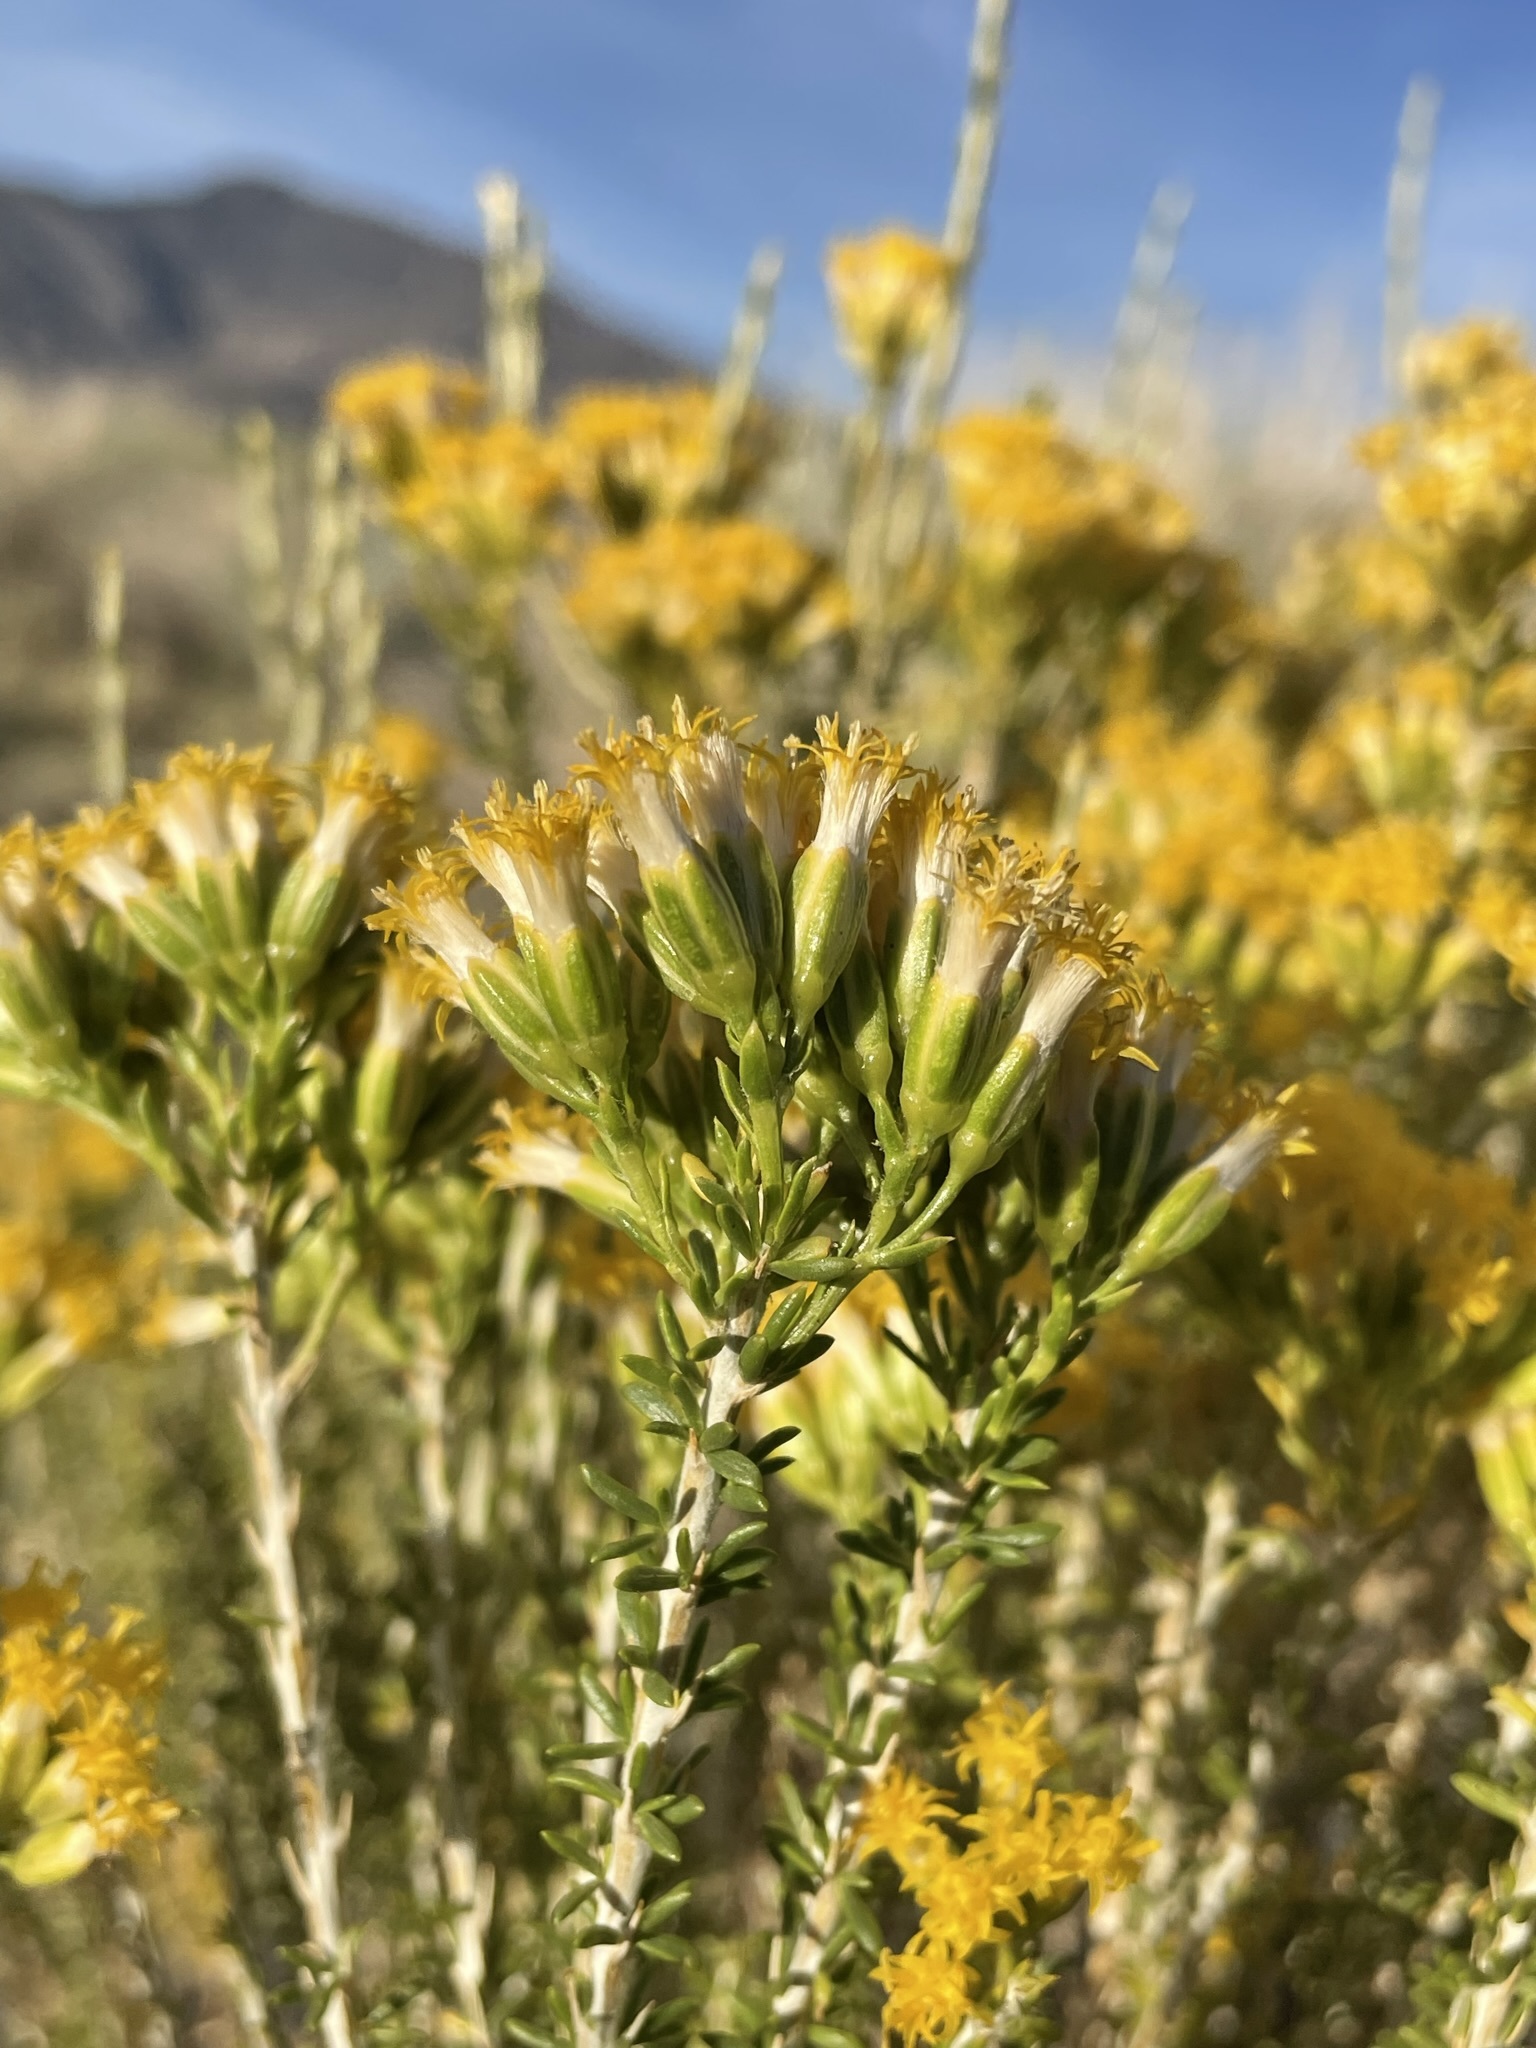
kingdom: Plantae
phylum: Tracheophyta
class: Magnoliopsida
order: Asterales
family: Asteraceae
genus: Tetradymia
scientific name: Tetradymia glabrata
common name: Smooth tetradymia
